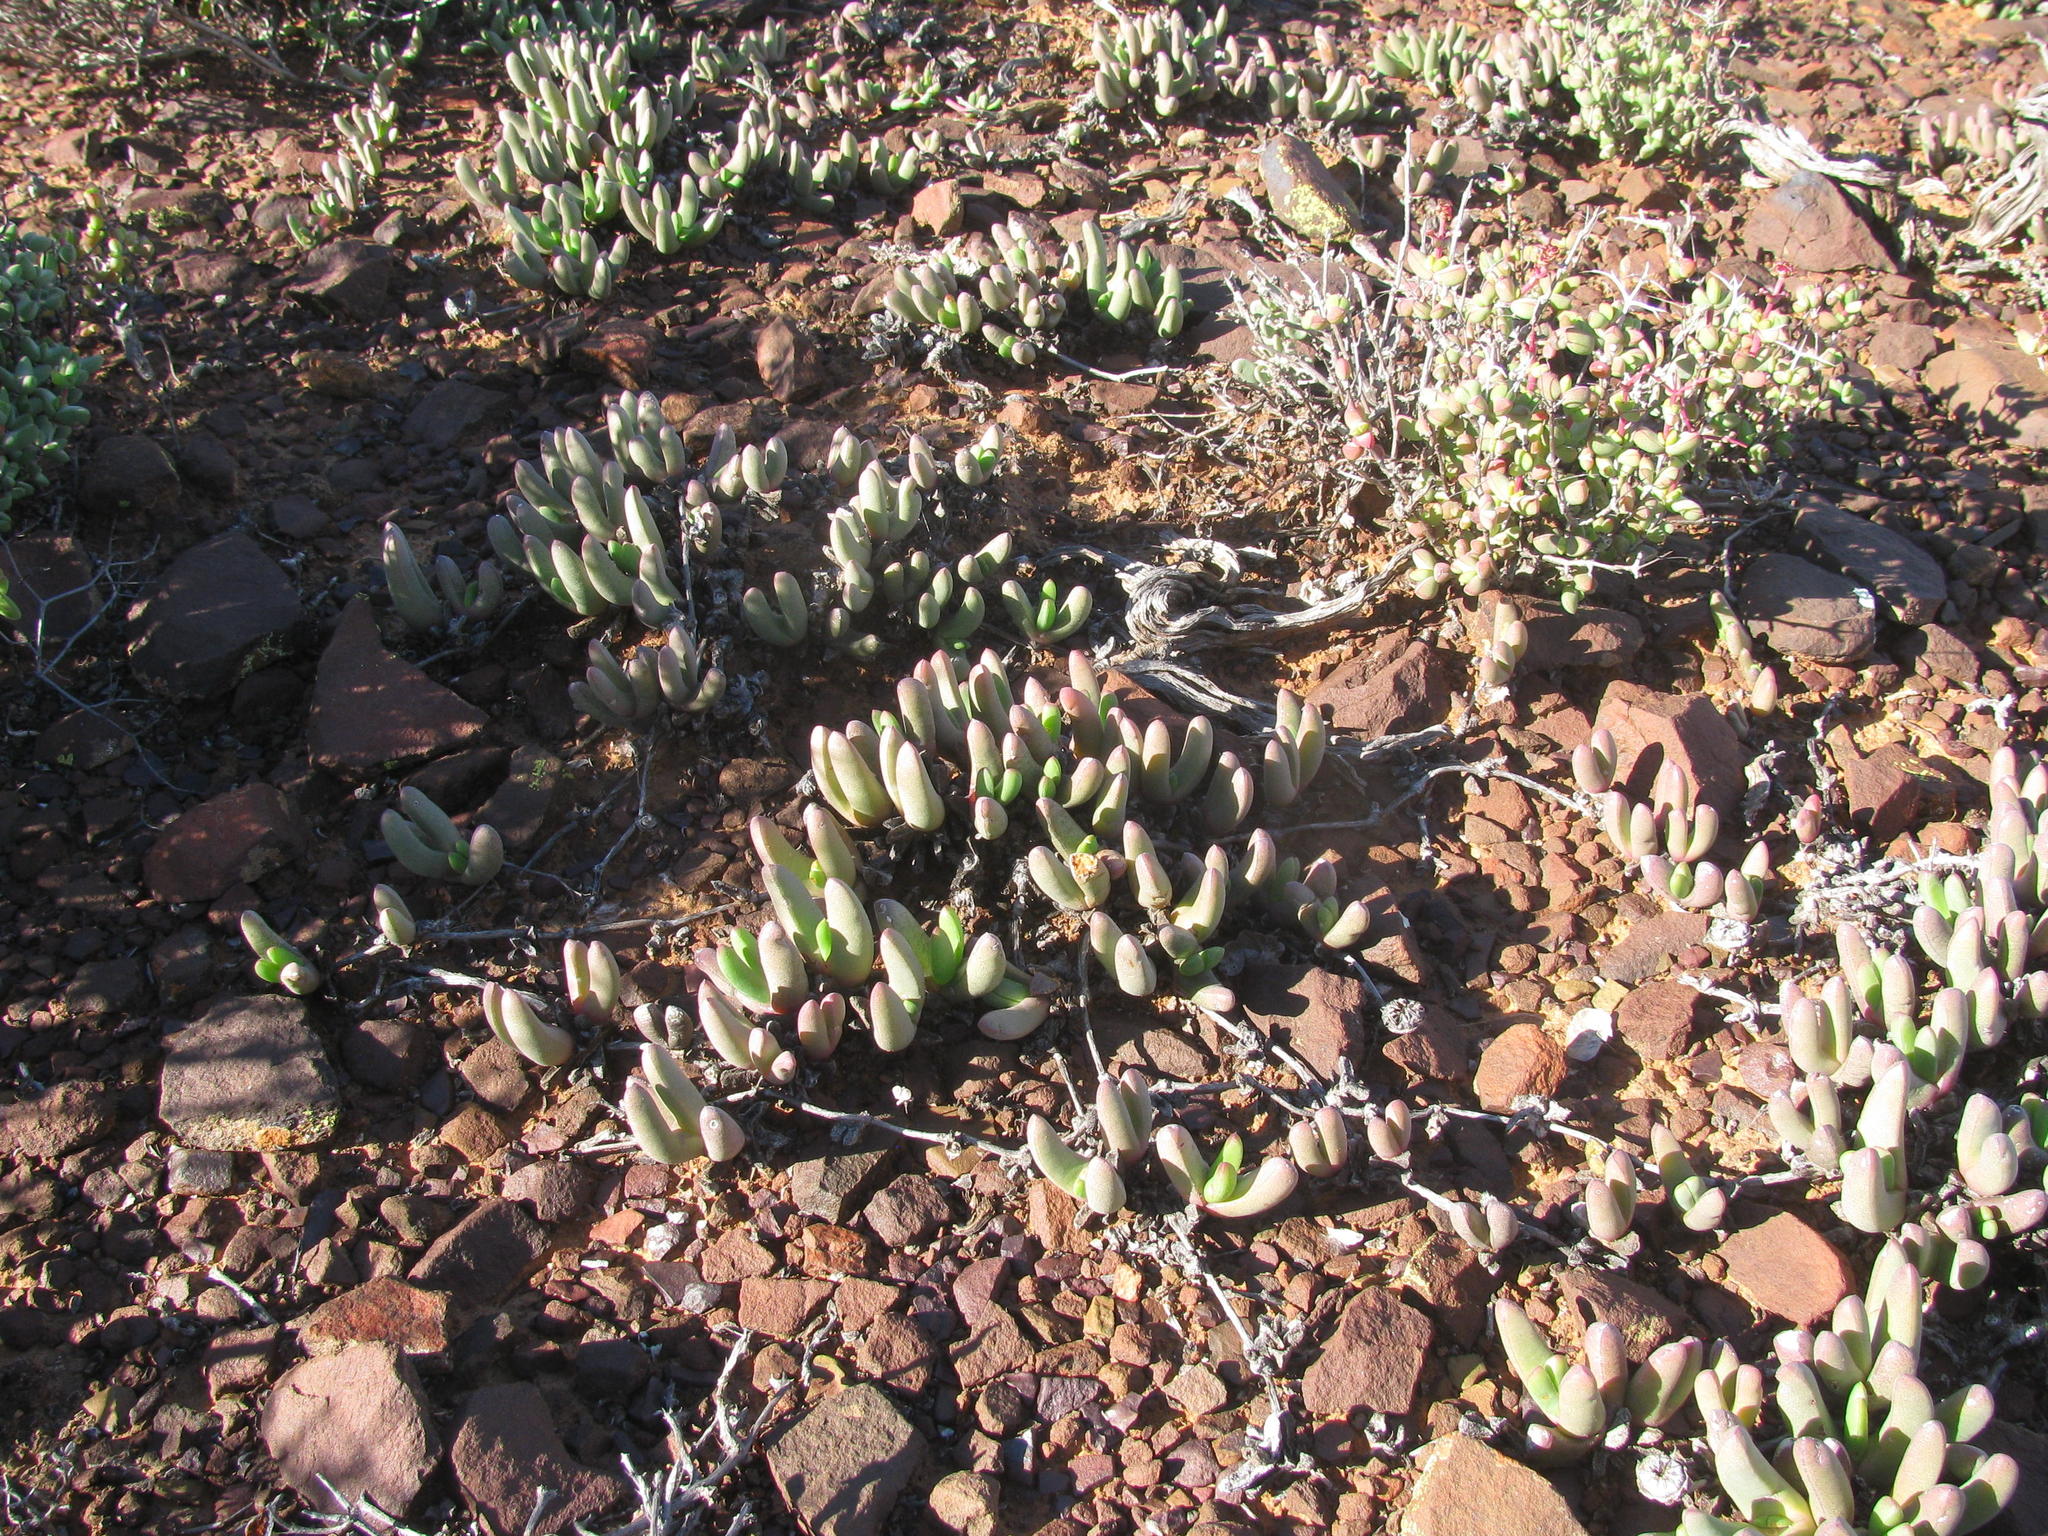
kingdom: Plantae
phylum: Tracheophyta
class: Magnoliopsida
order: Caryophyllales
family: Aizoaceae
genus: Cephalophyllum
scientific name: Cephalophyllum curtophyllum
